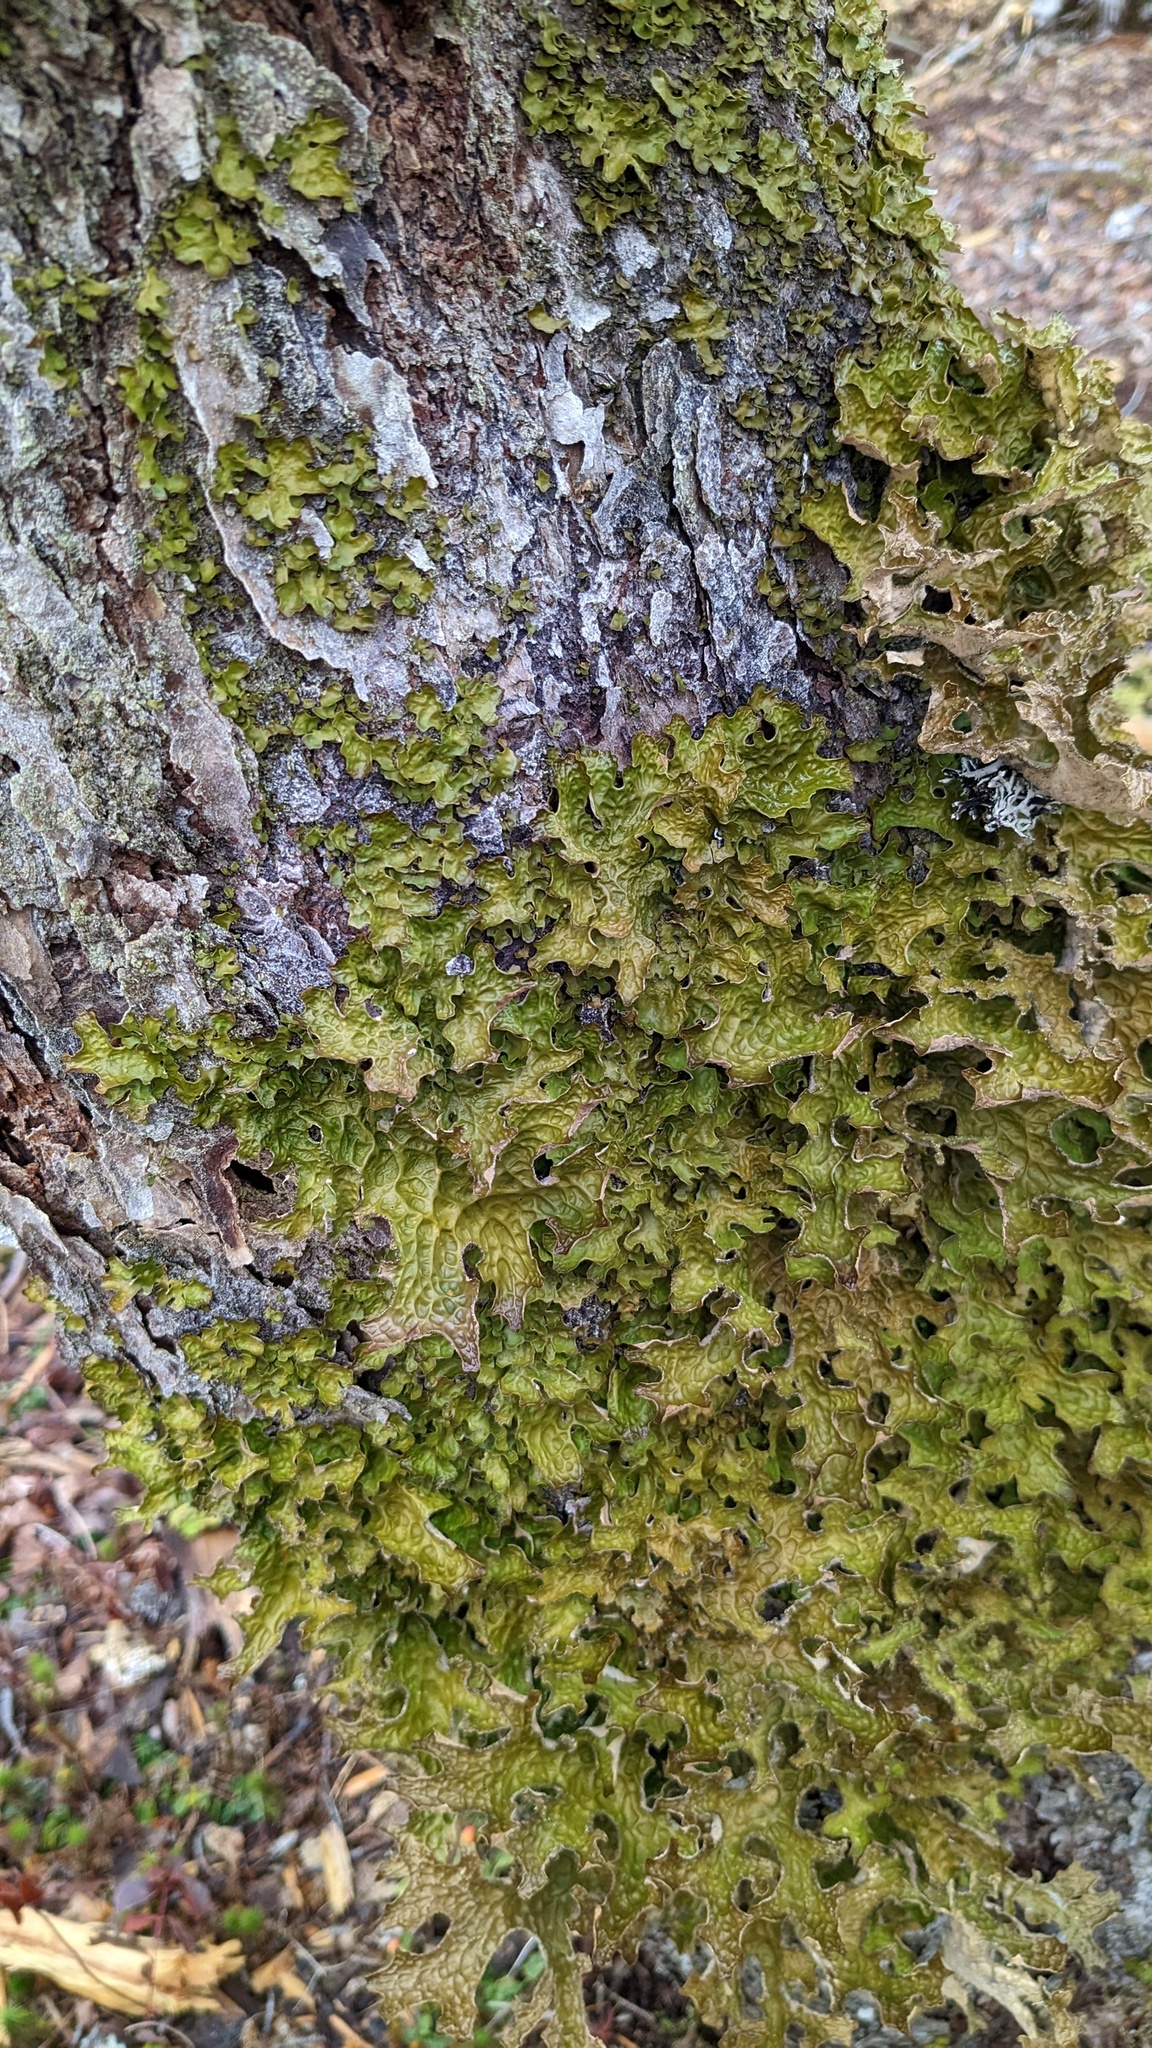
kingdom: Fungi
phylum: Ascomycota
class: Lecanoromycetes
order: Peltigerales
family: Lobariaceae
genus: Lobaria
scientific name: Lobaria pulmonaria
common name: Lungwort
